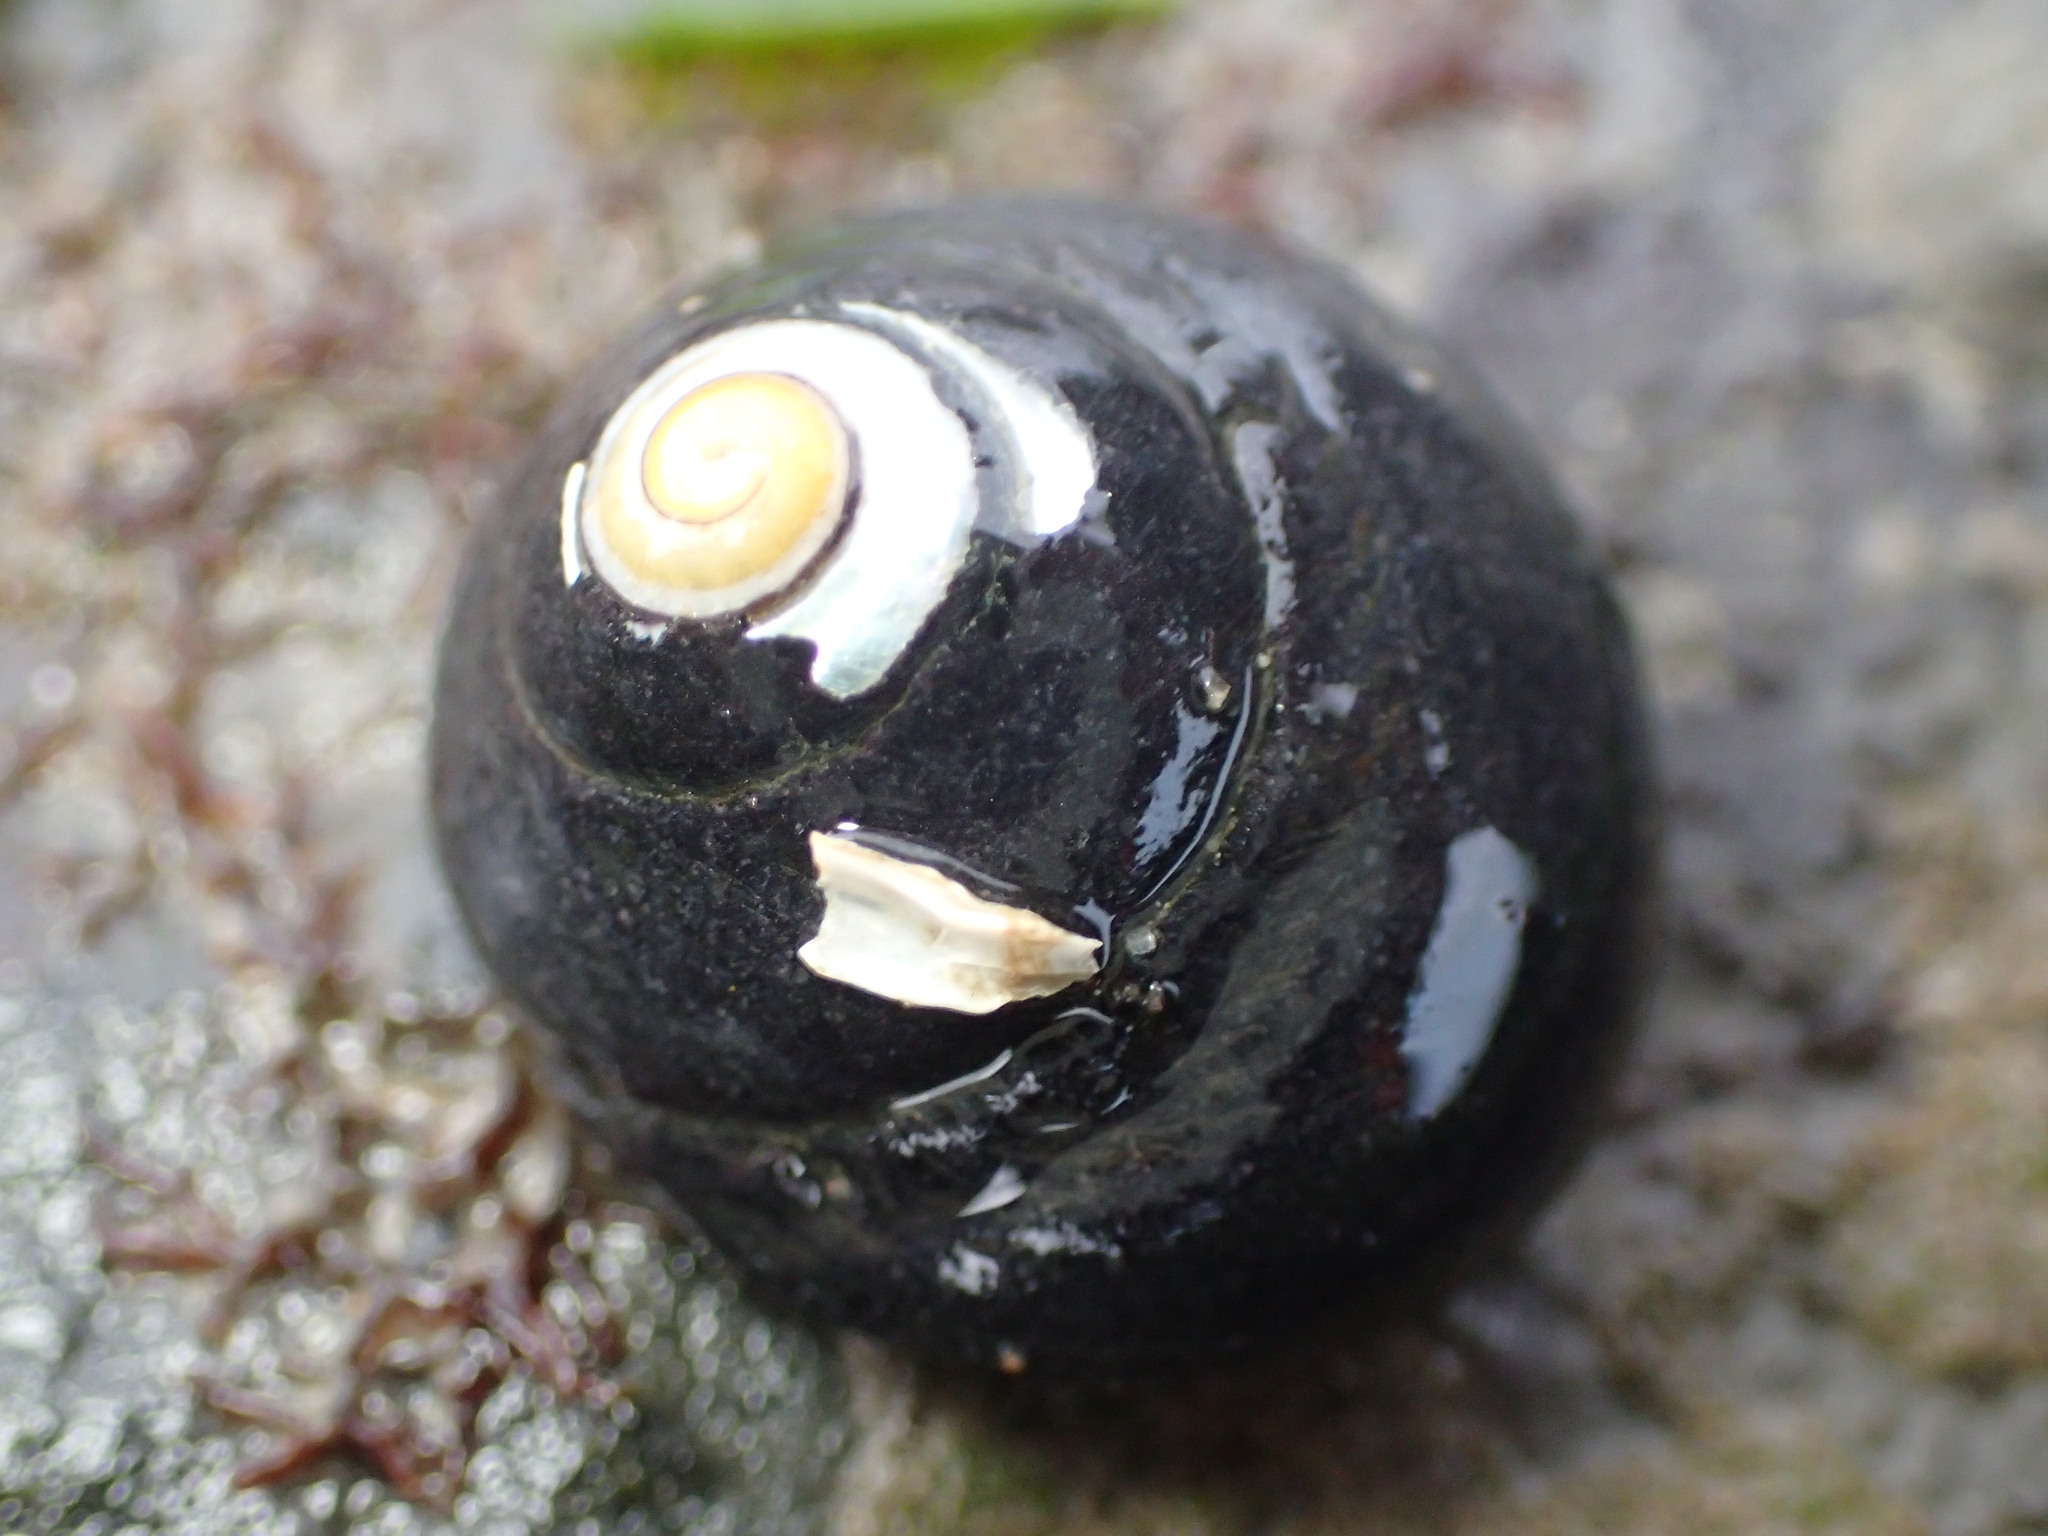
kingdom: Animalia
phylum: Mollusca
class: Gastropoda
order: Trochida
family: Tegulidae
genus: Tegula
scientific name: Tegula funebralis
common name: Black tegula
